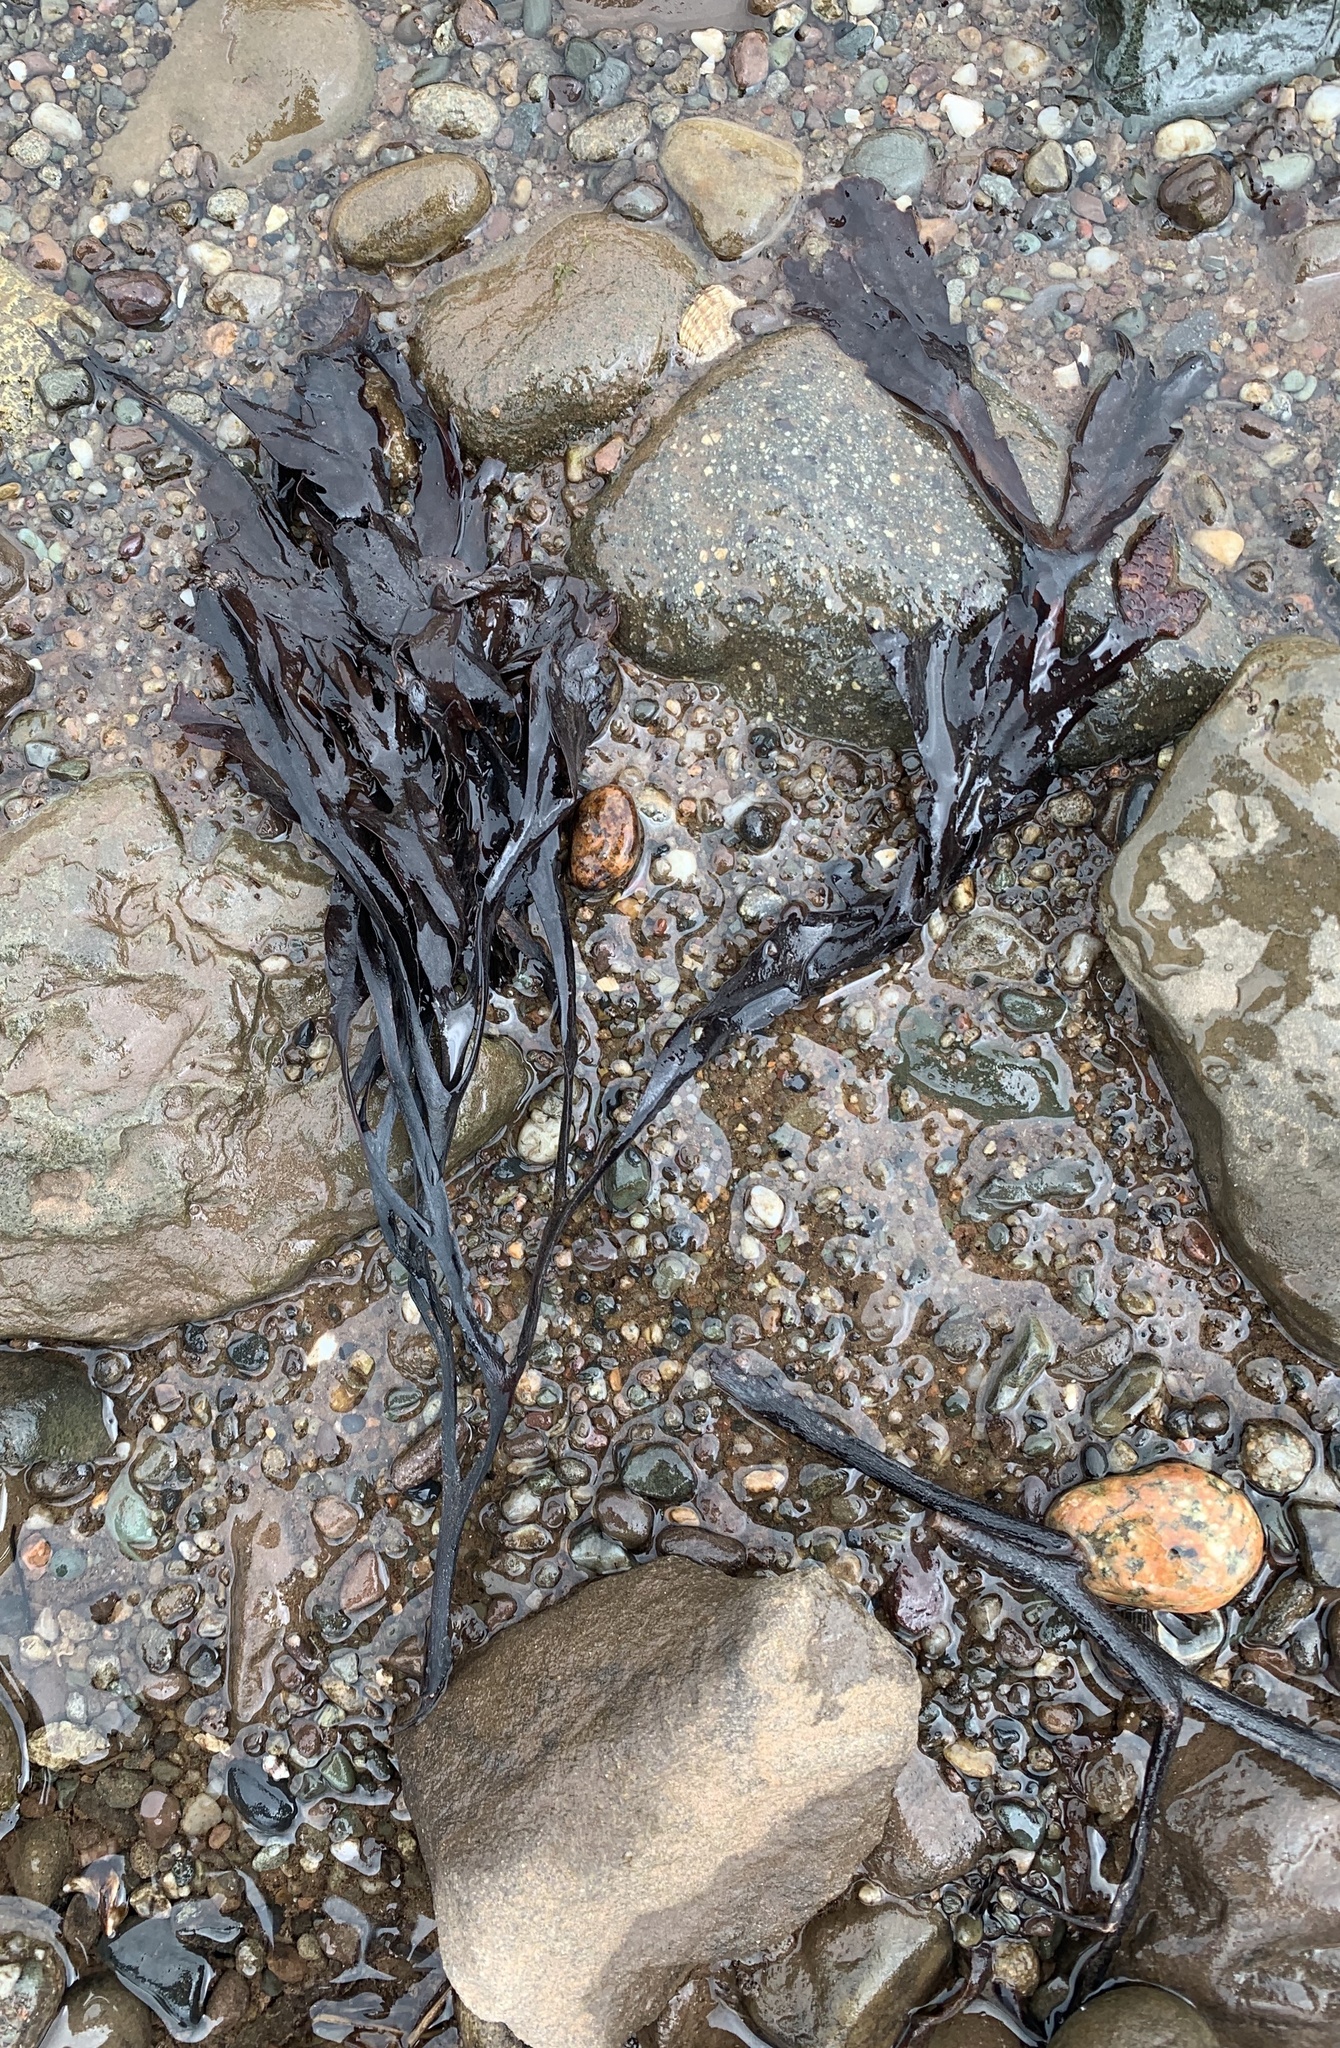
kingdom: Chromista
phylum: Ochrophyta
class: Phaeophyceae
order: Fucales
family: Fucaceae
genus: Fucus
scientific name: Fucus serratus
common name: Toothed wrack
